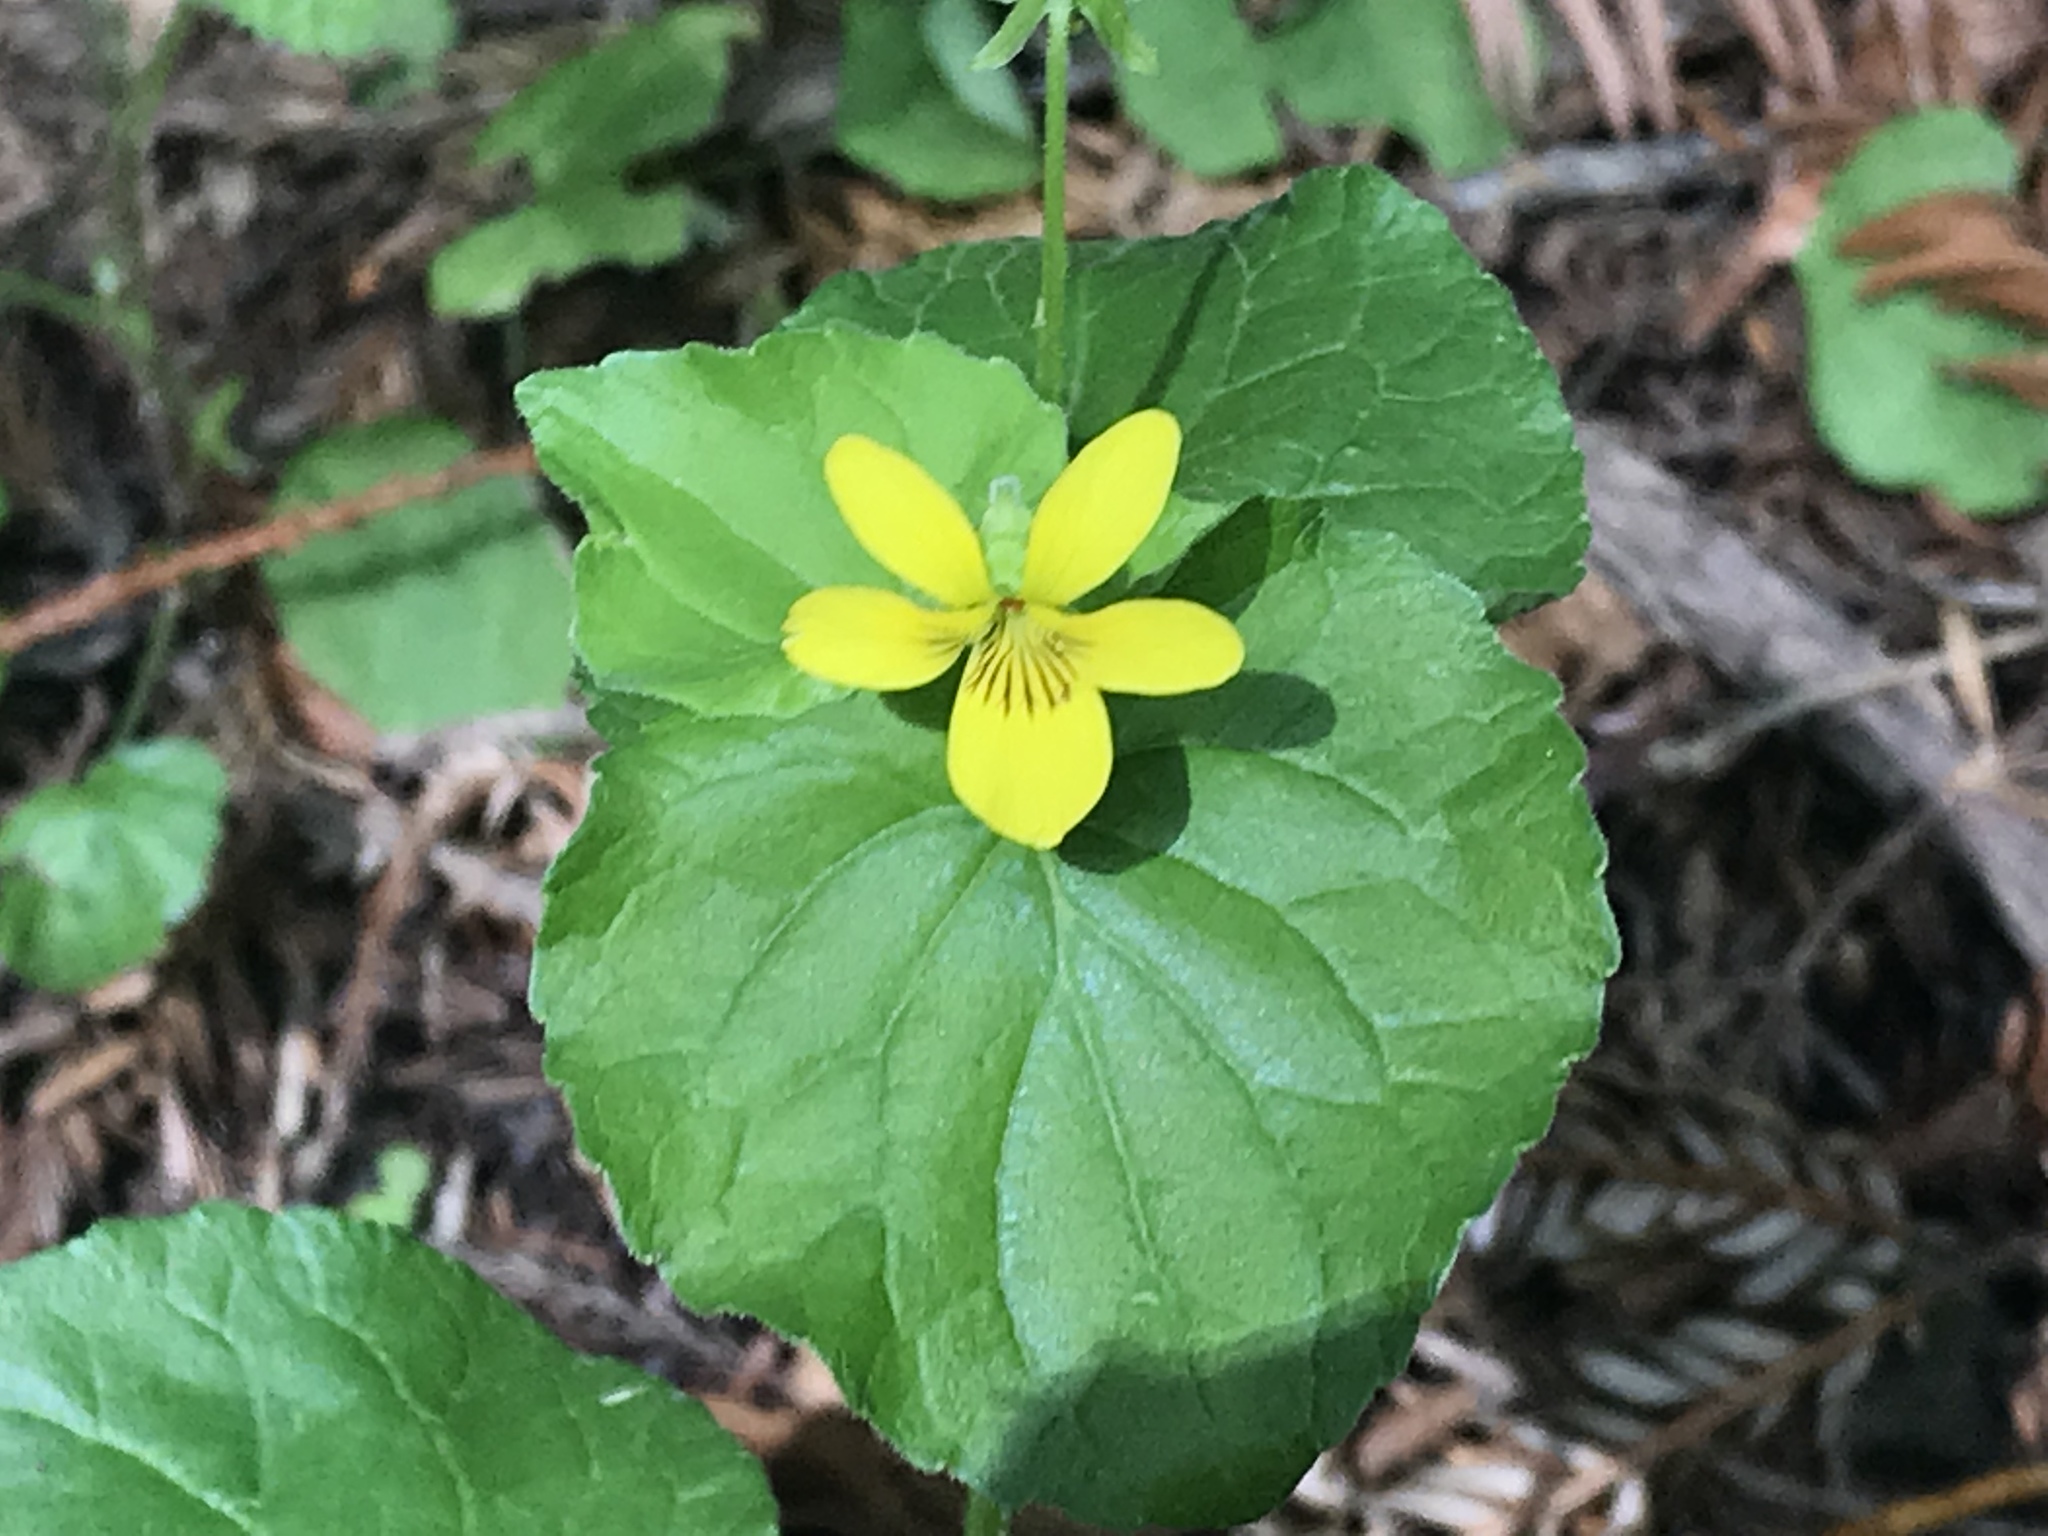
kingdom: Plantae
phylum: Tracheophyta
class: Magnoliopsida
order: Malpighiales
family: Violaceae
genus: Viola
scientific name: Viola glabella
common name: Stream violet
